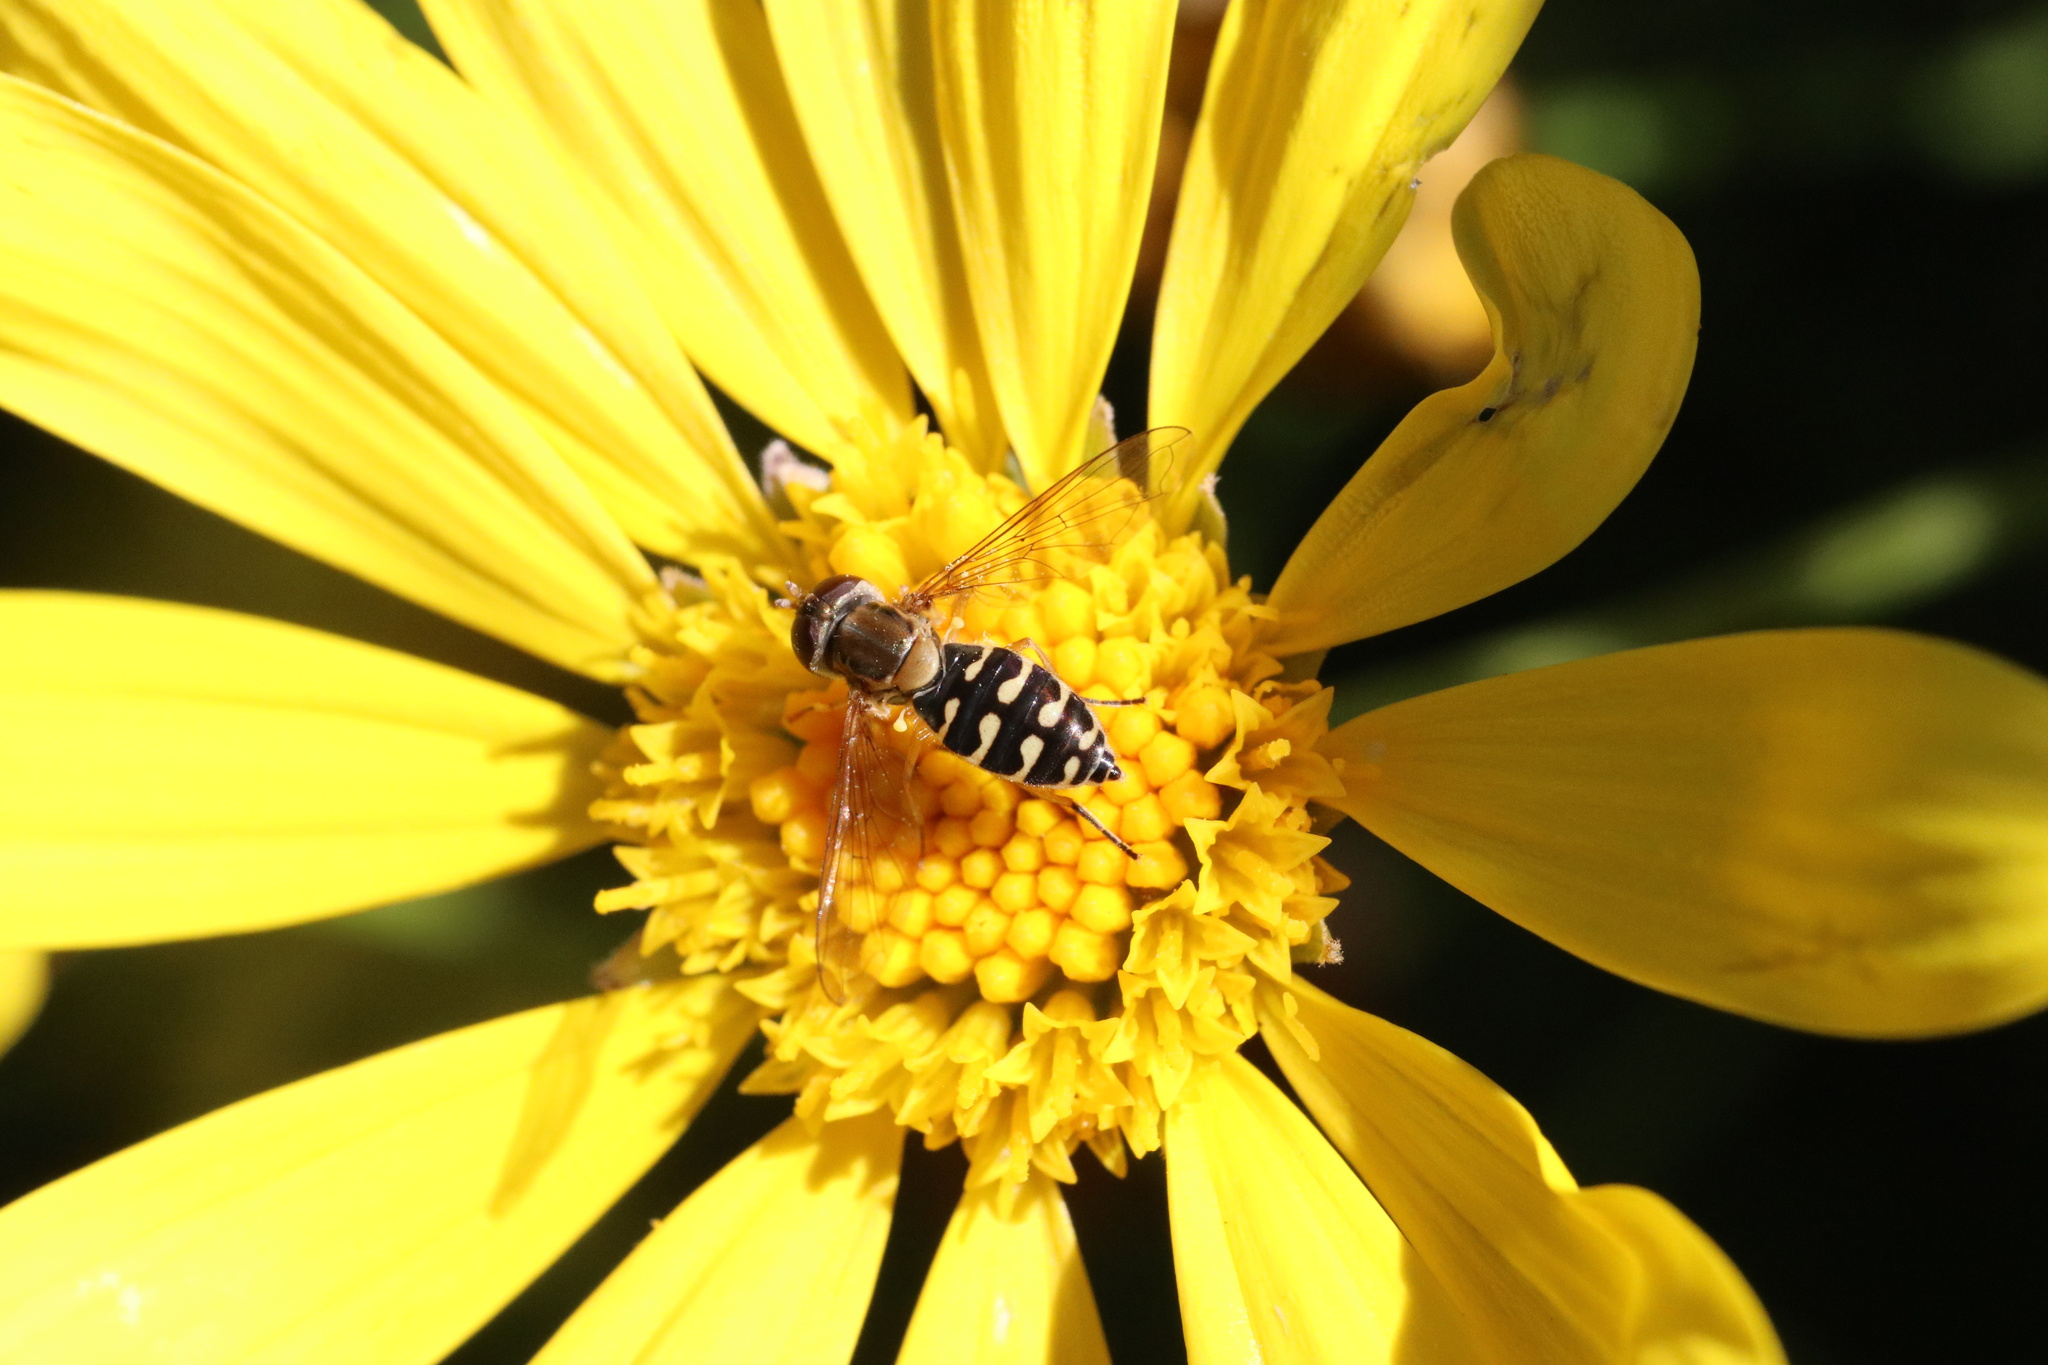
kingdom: Animalia
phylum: Arthropoda
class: Insecta
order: Diptera
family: Syrphidae
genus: Toxomerus
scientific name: Toxomerus vertebratus
